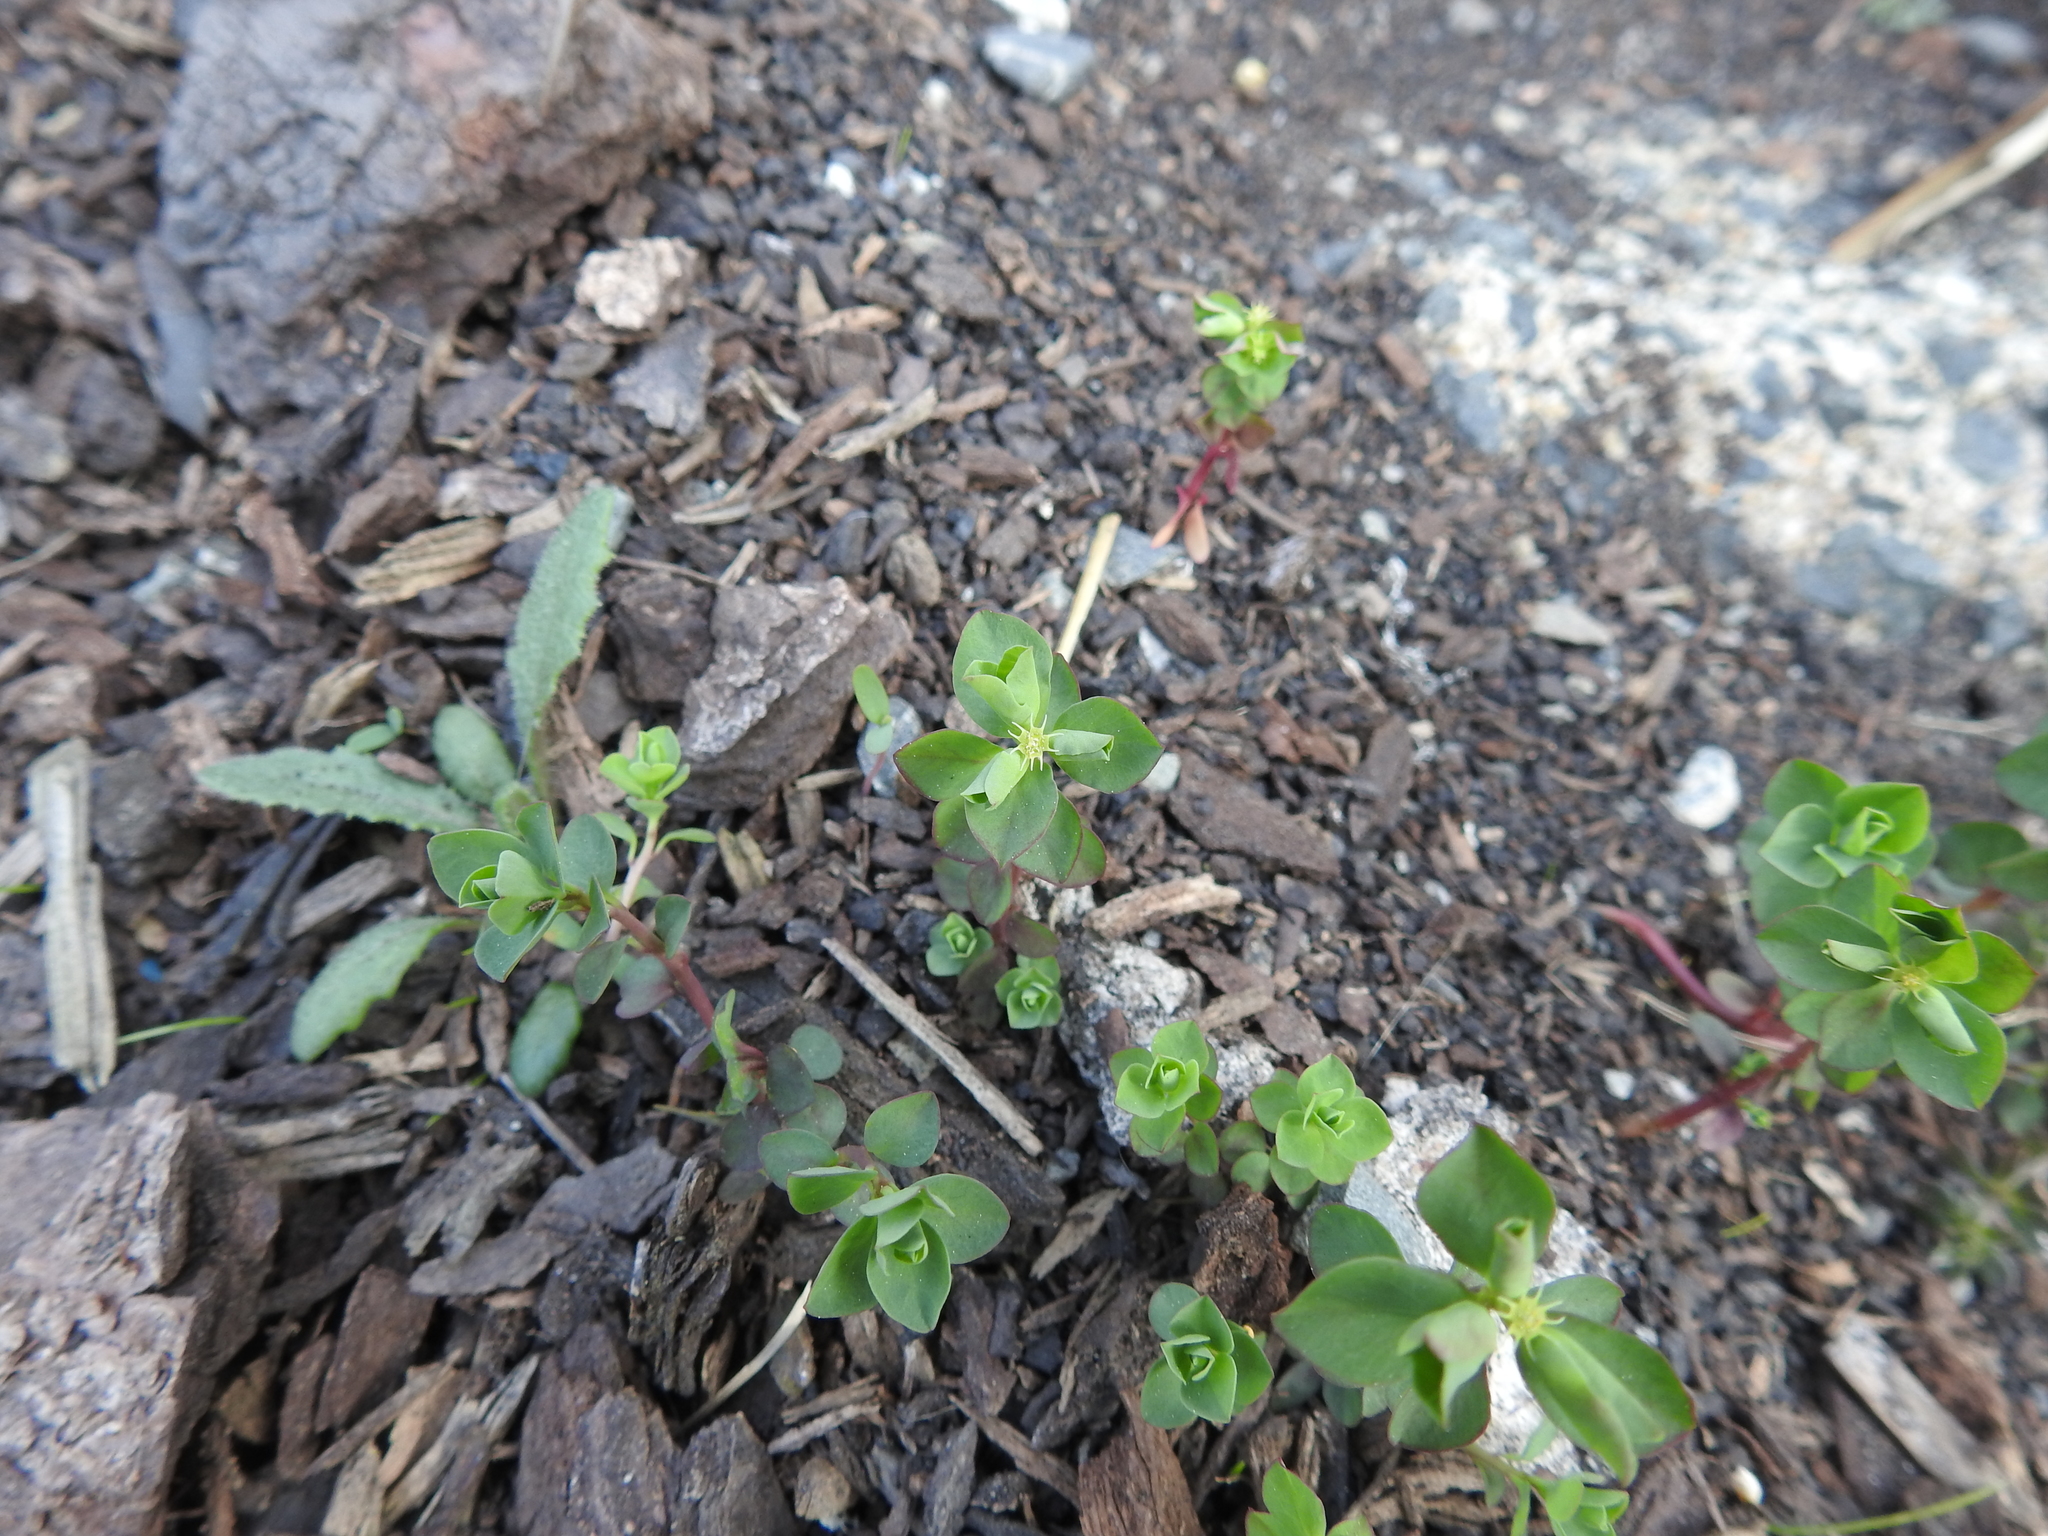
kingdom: Plantae
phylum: Tracheophyta
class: Magnoliopsida
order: Malpighiales
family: Euphorbiaceae
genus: Euphorbia
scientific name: Euphorbia peplus
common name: Petty spurge
